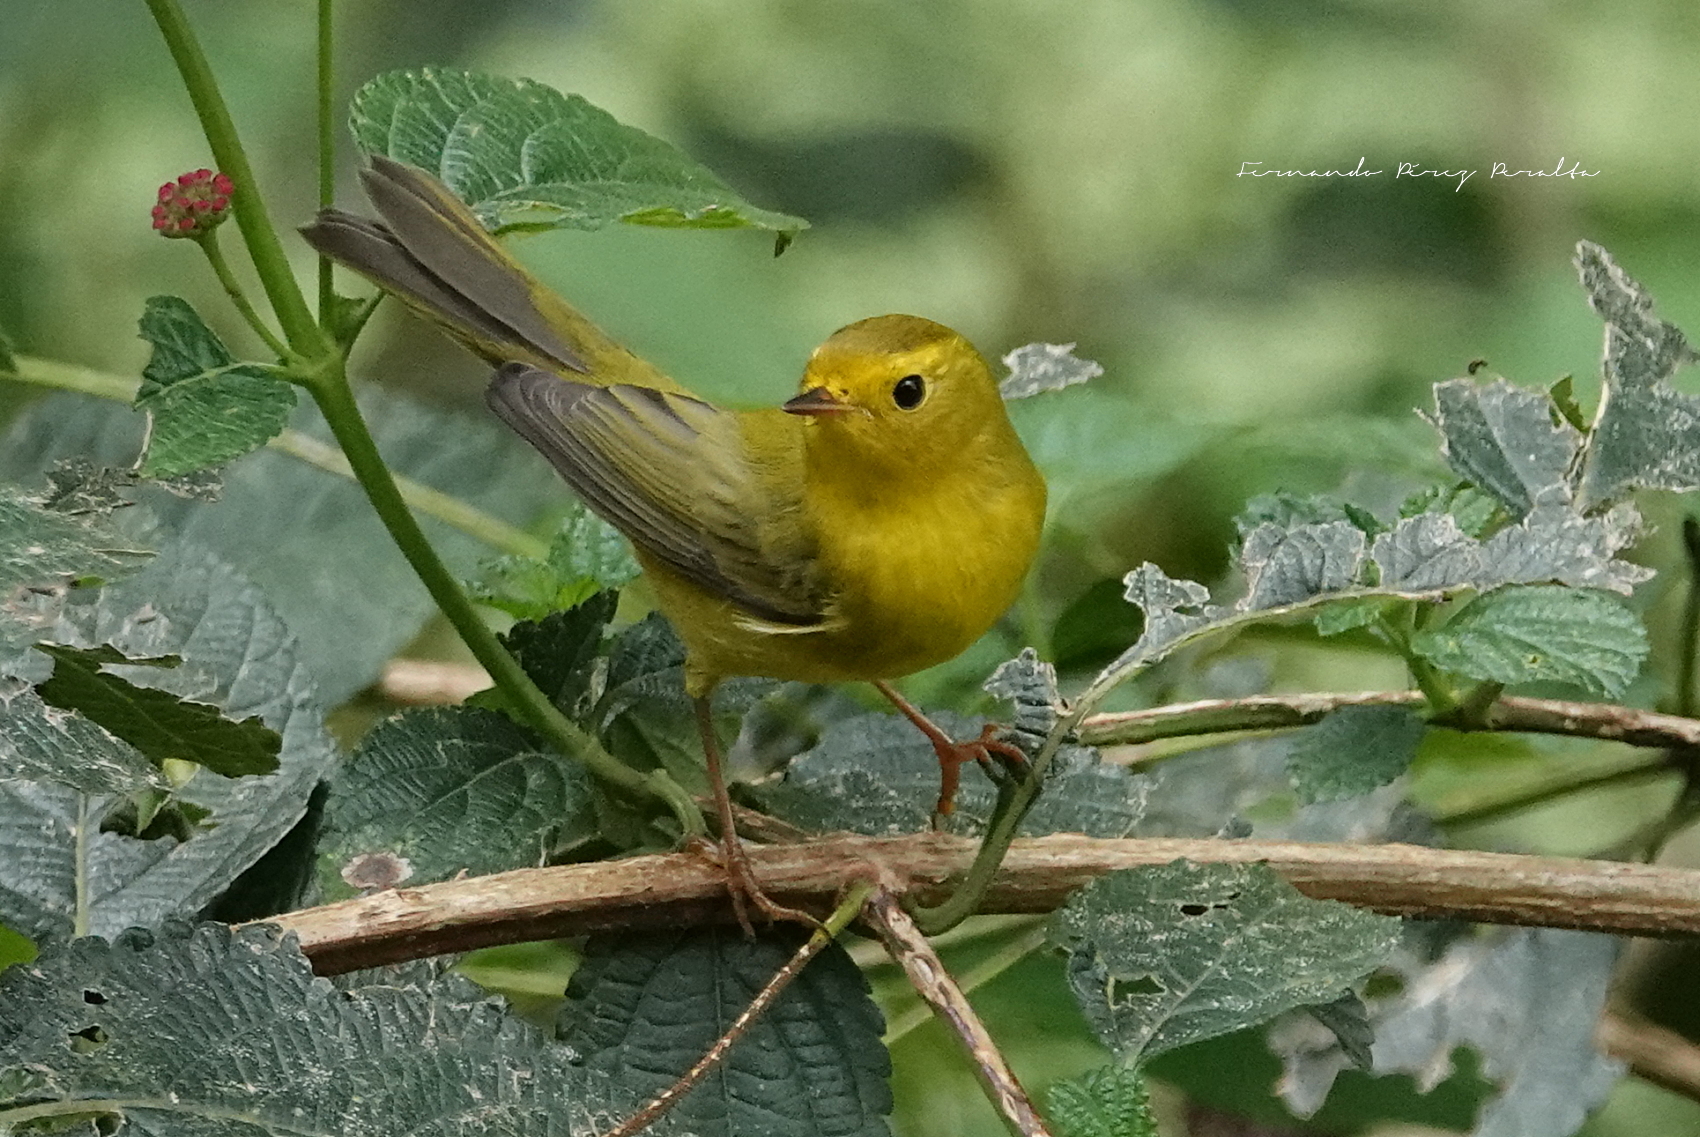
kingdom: Animalia
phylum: Chordata
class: Aves
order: Passeriformes
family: Parulidae
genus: Cardellina
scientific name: Cardellina pusilla
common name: Wilson's warbler
